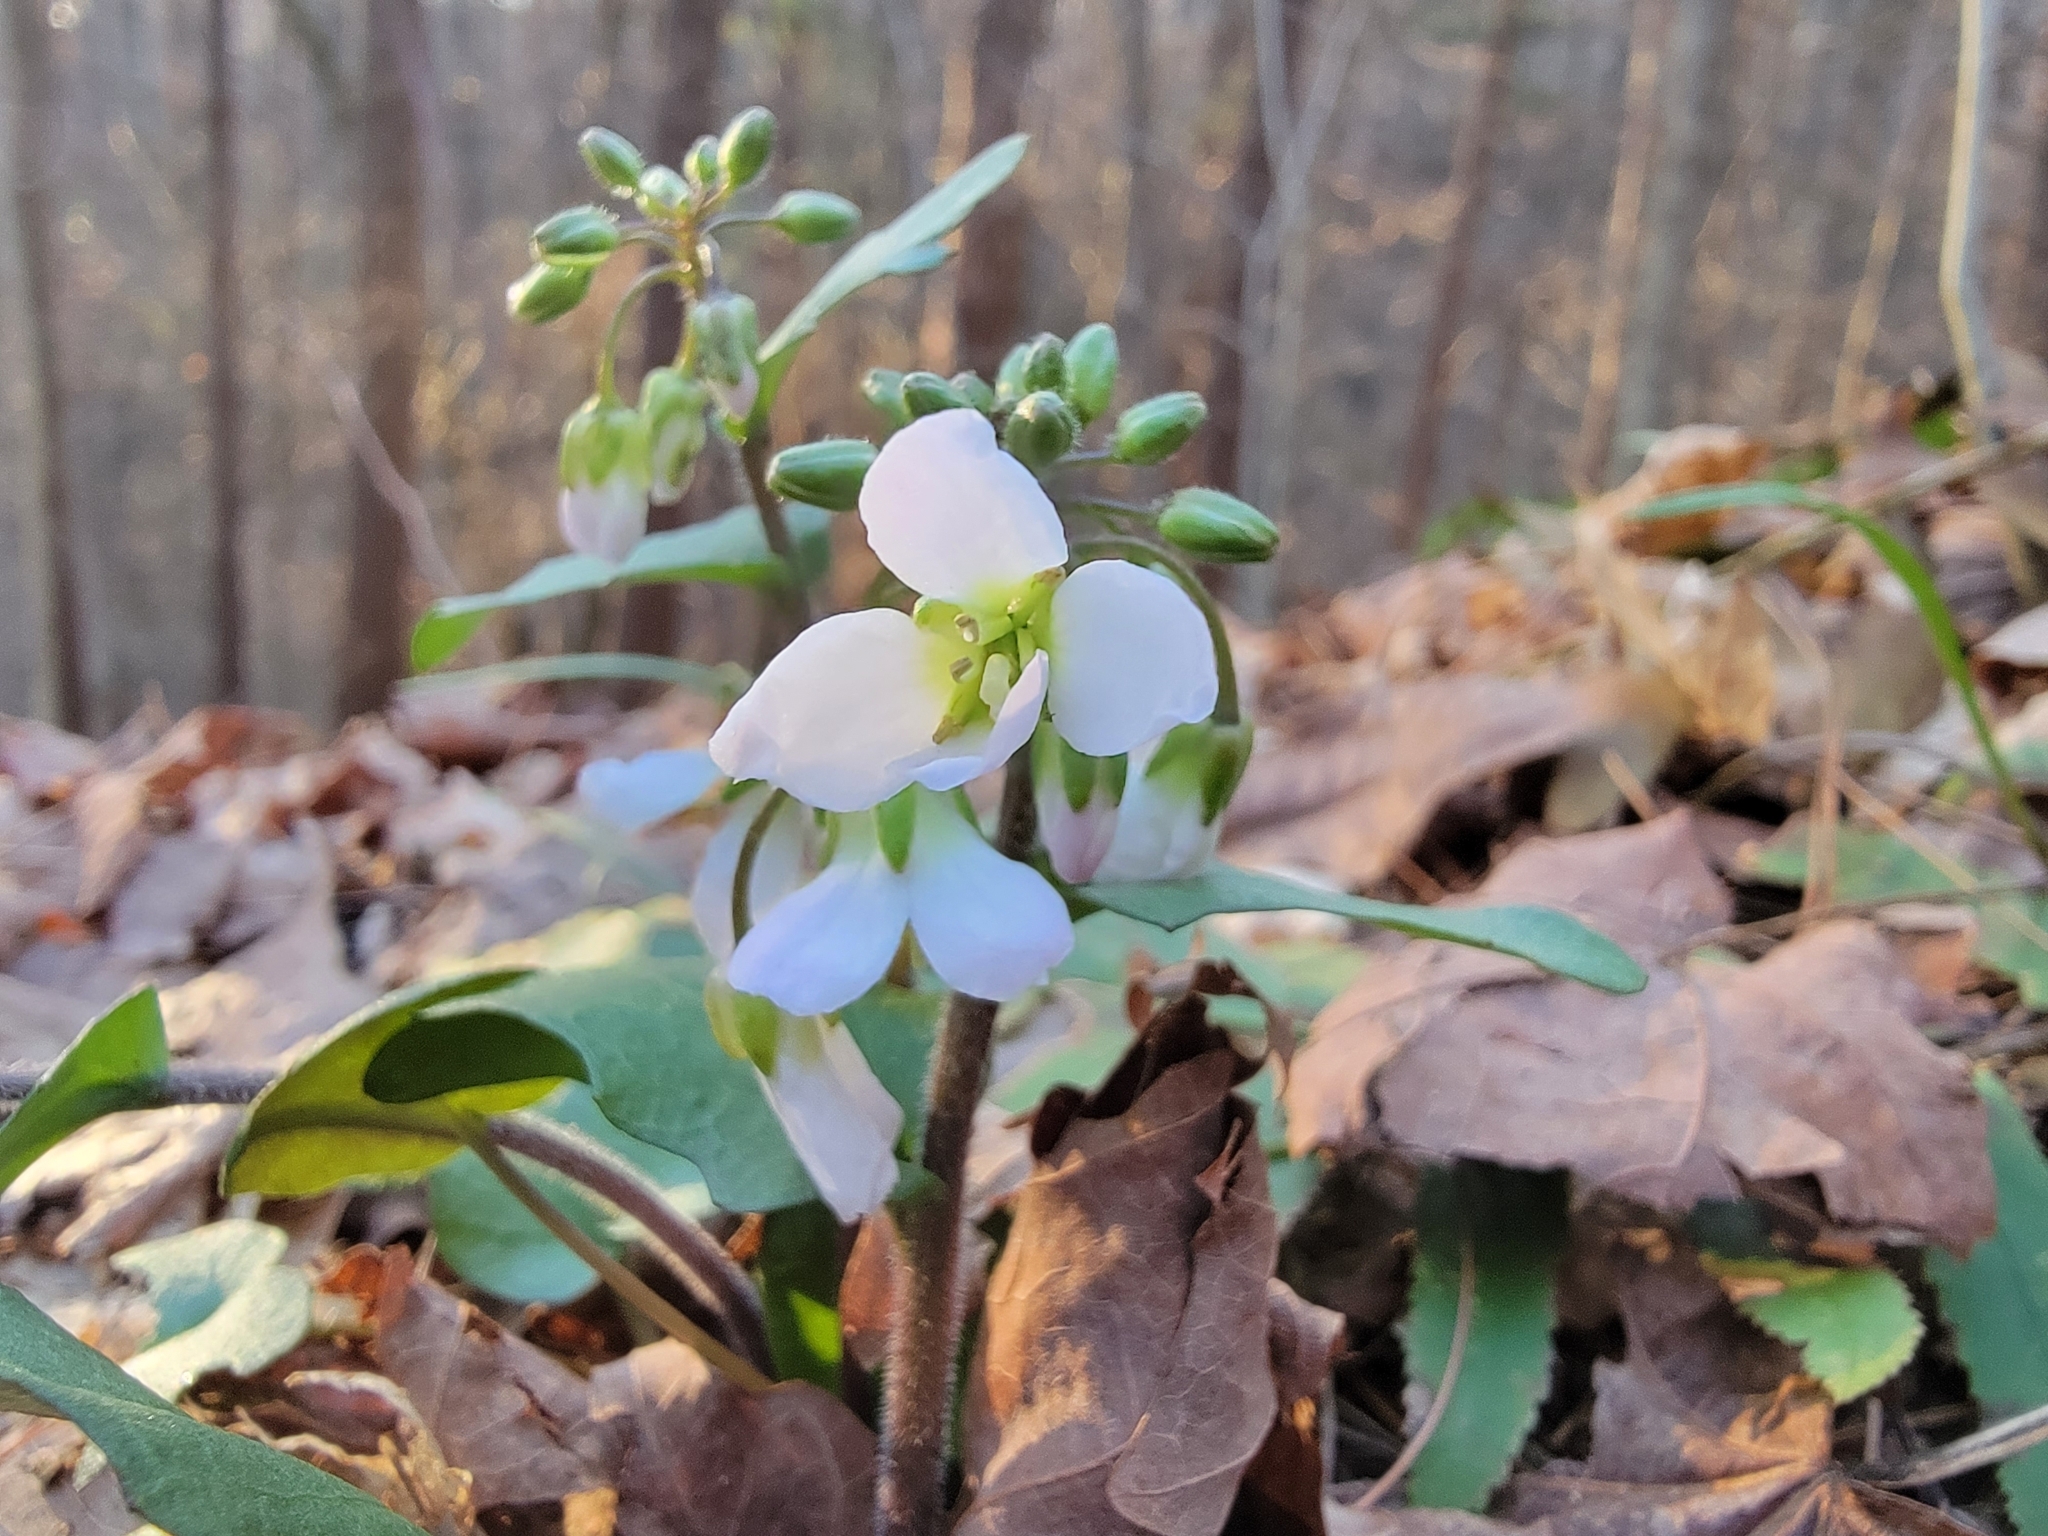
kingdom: Plantae
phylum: Tracheophyta
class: Magnoliopsida
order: Brassicales
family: Brassicaceae
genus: Cardamine
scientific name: Cardamine douglassii
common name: Purple cress
